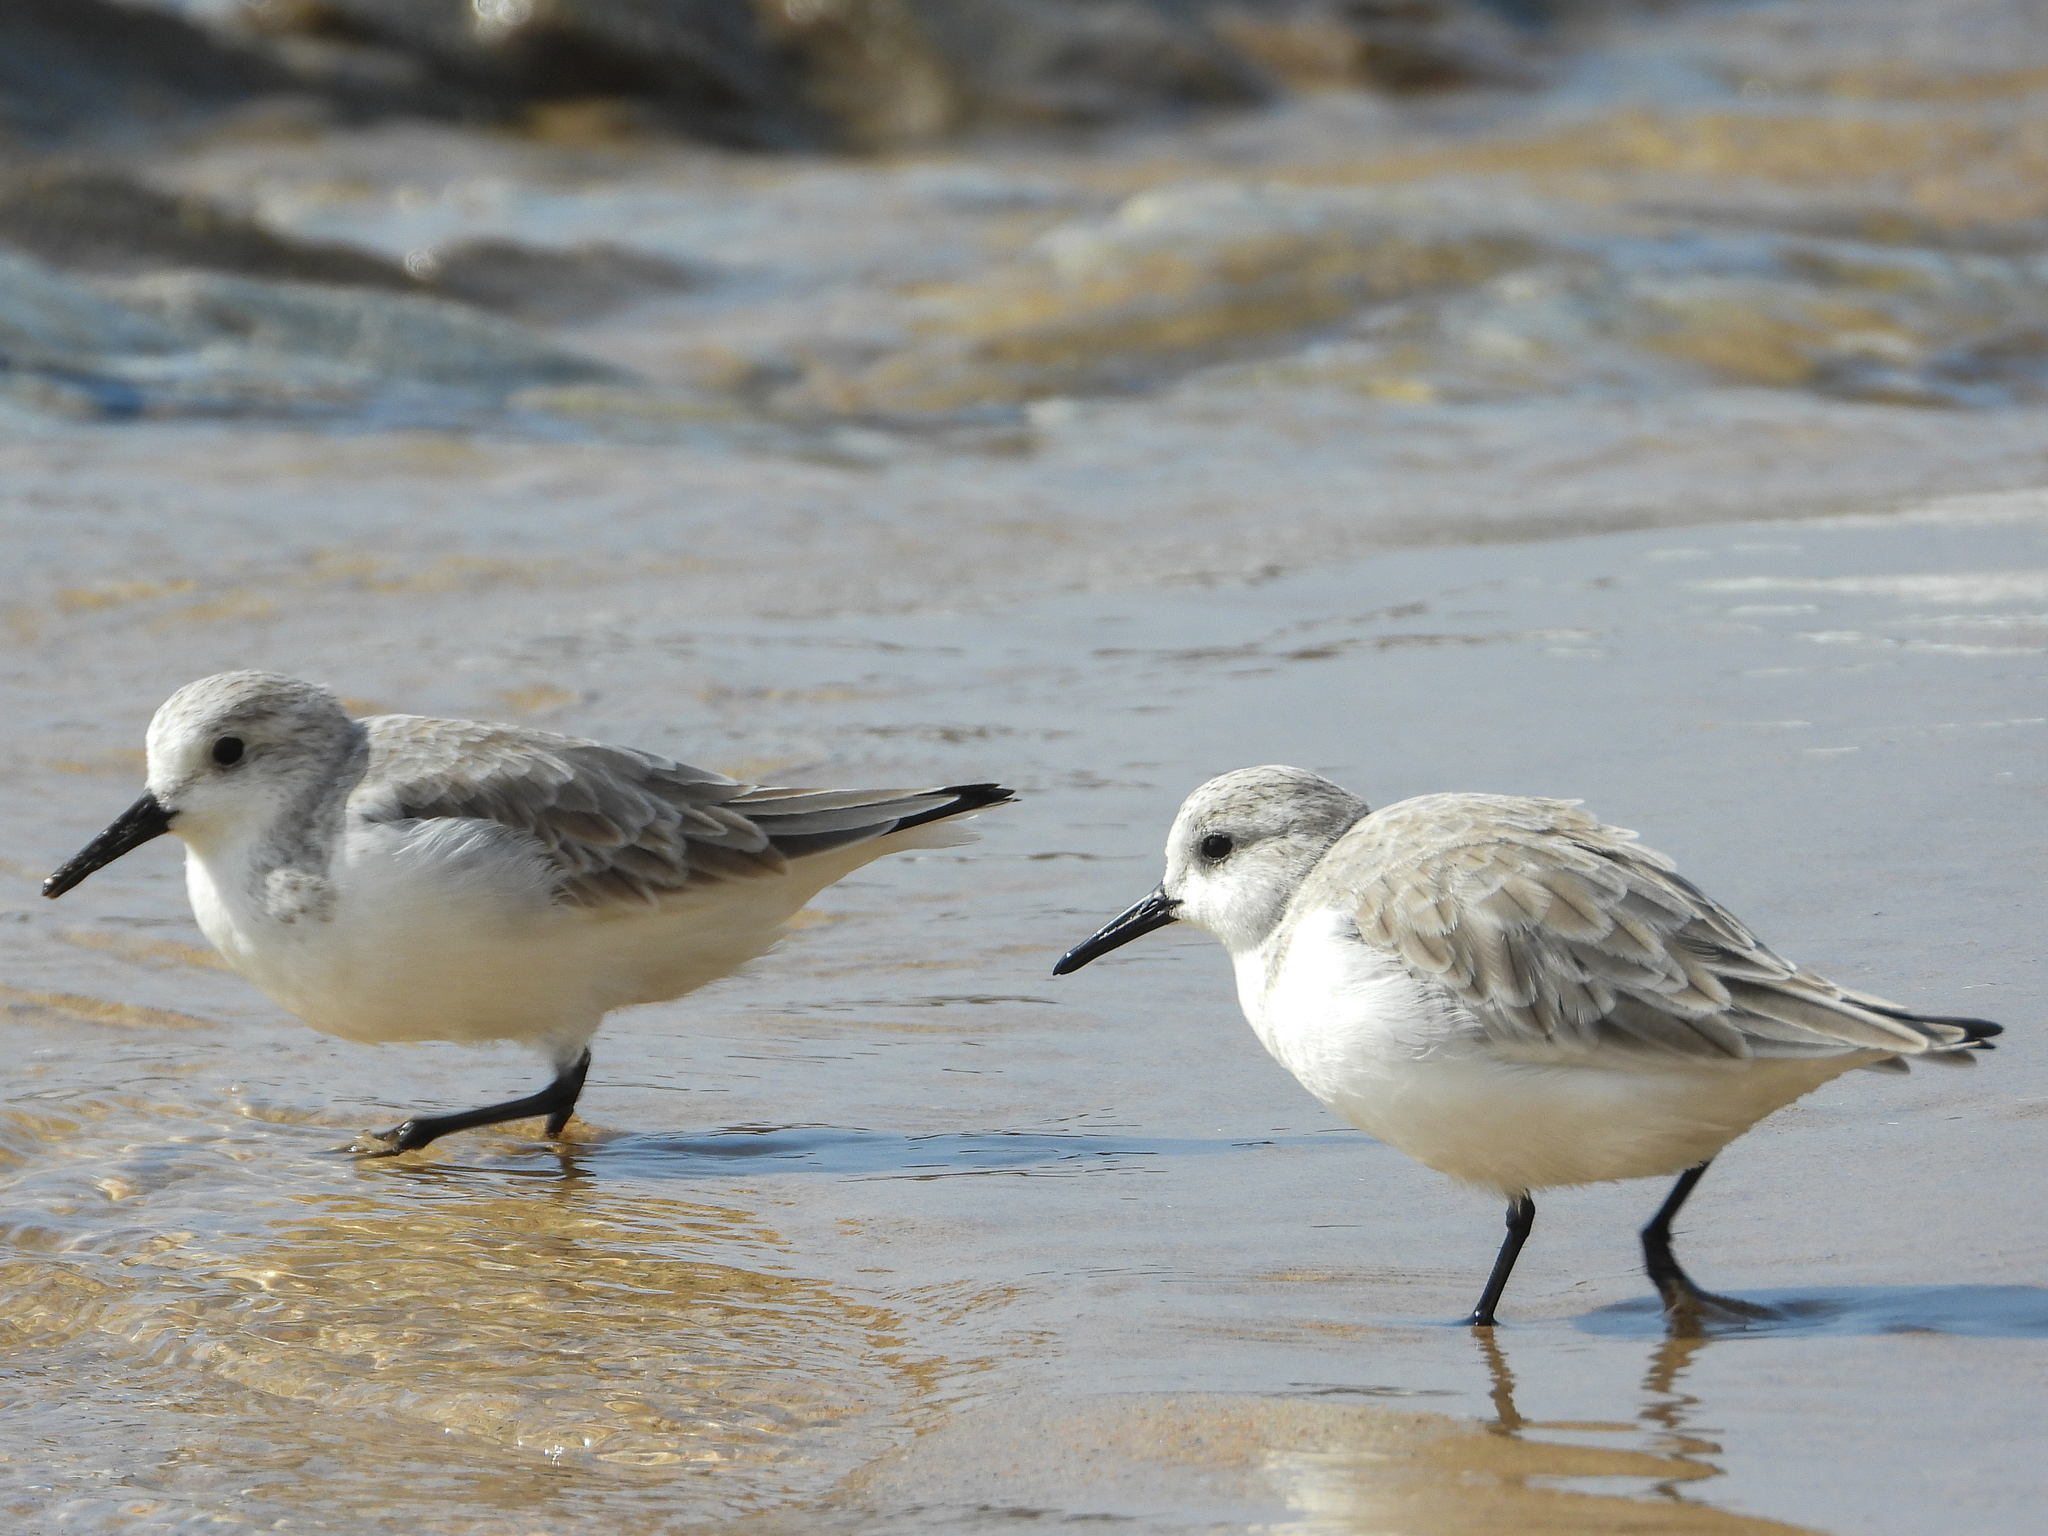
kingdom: Animalia
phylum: Chordata
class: Aves
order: Charadriiformes
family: Scolopacidae
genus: Calidris
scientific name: Calidris alba
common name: Sanderling
